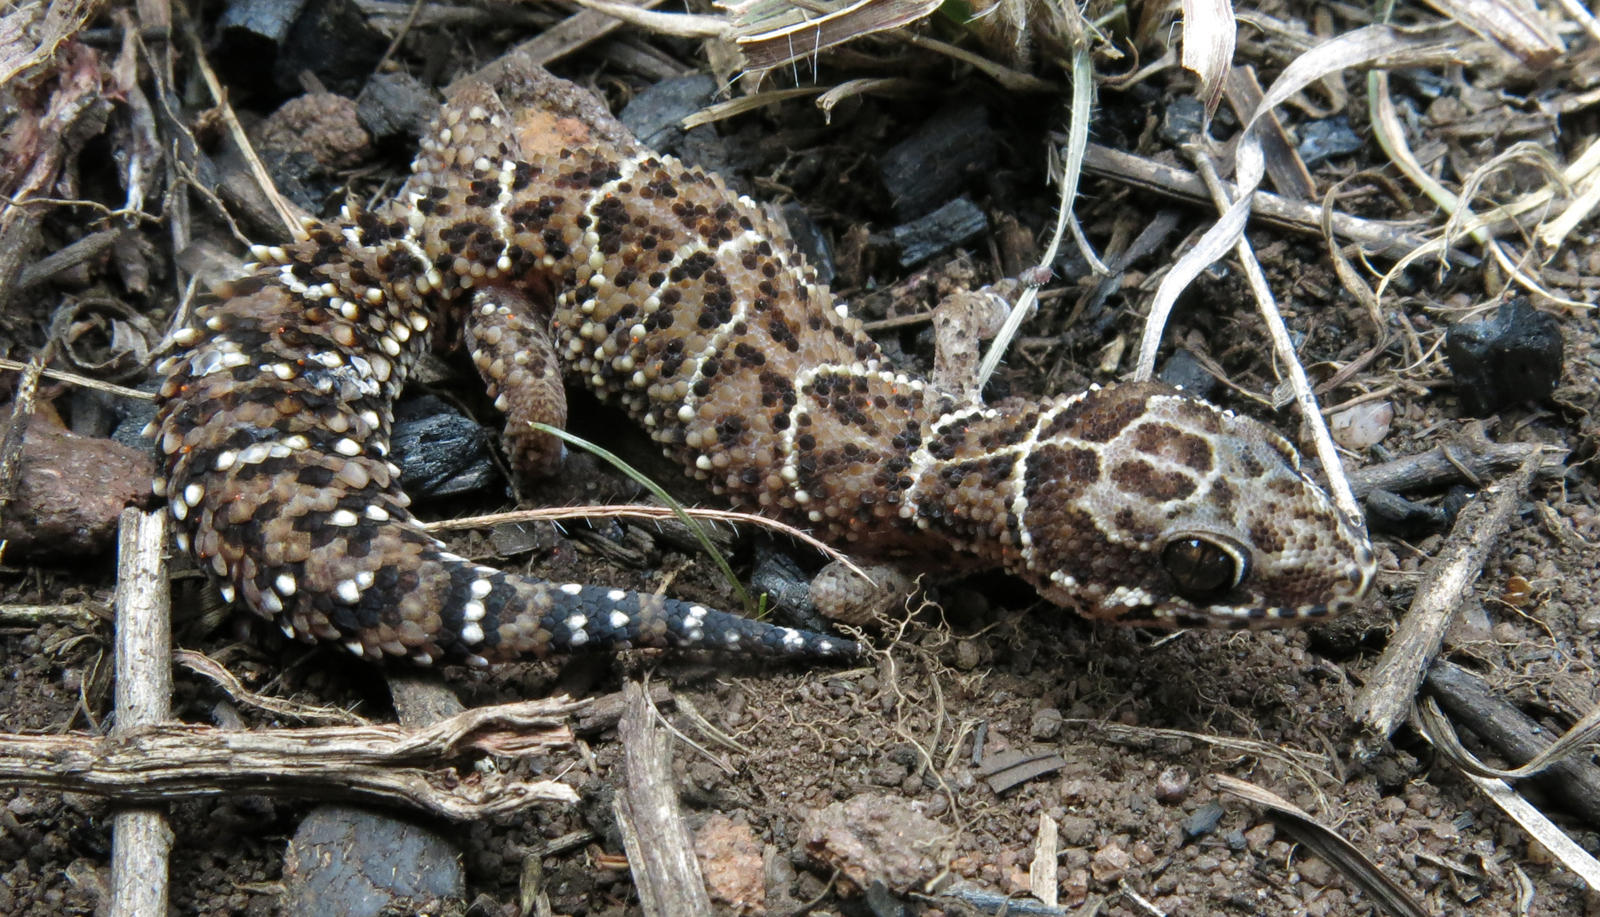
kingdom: Animalia
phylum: Chordata
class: Squamata
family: Gekkonidae
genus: Pachydactylus
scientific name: Pachydactylus vansoni
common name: Van son's gecko
